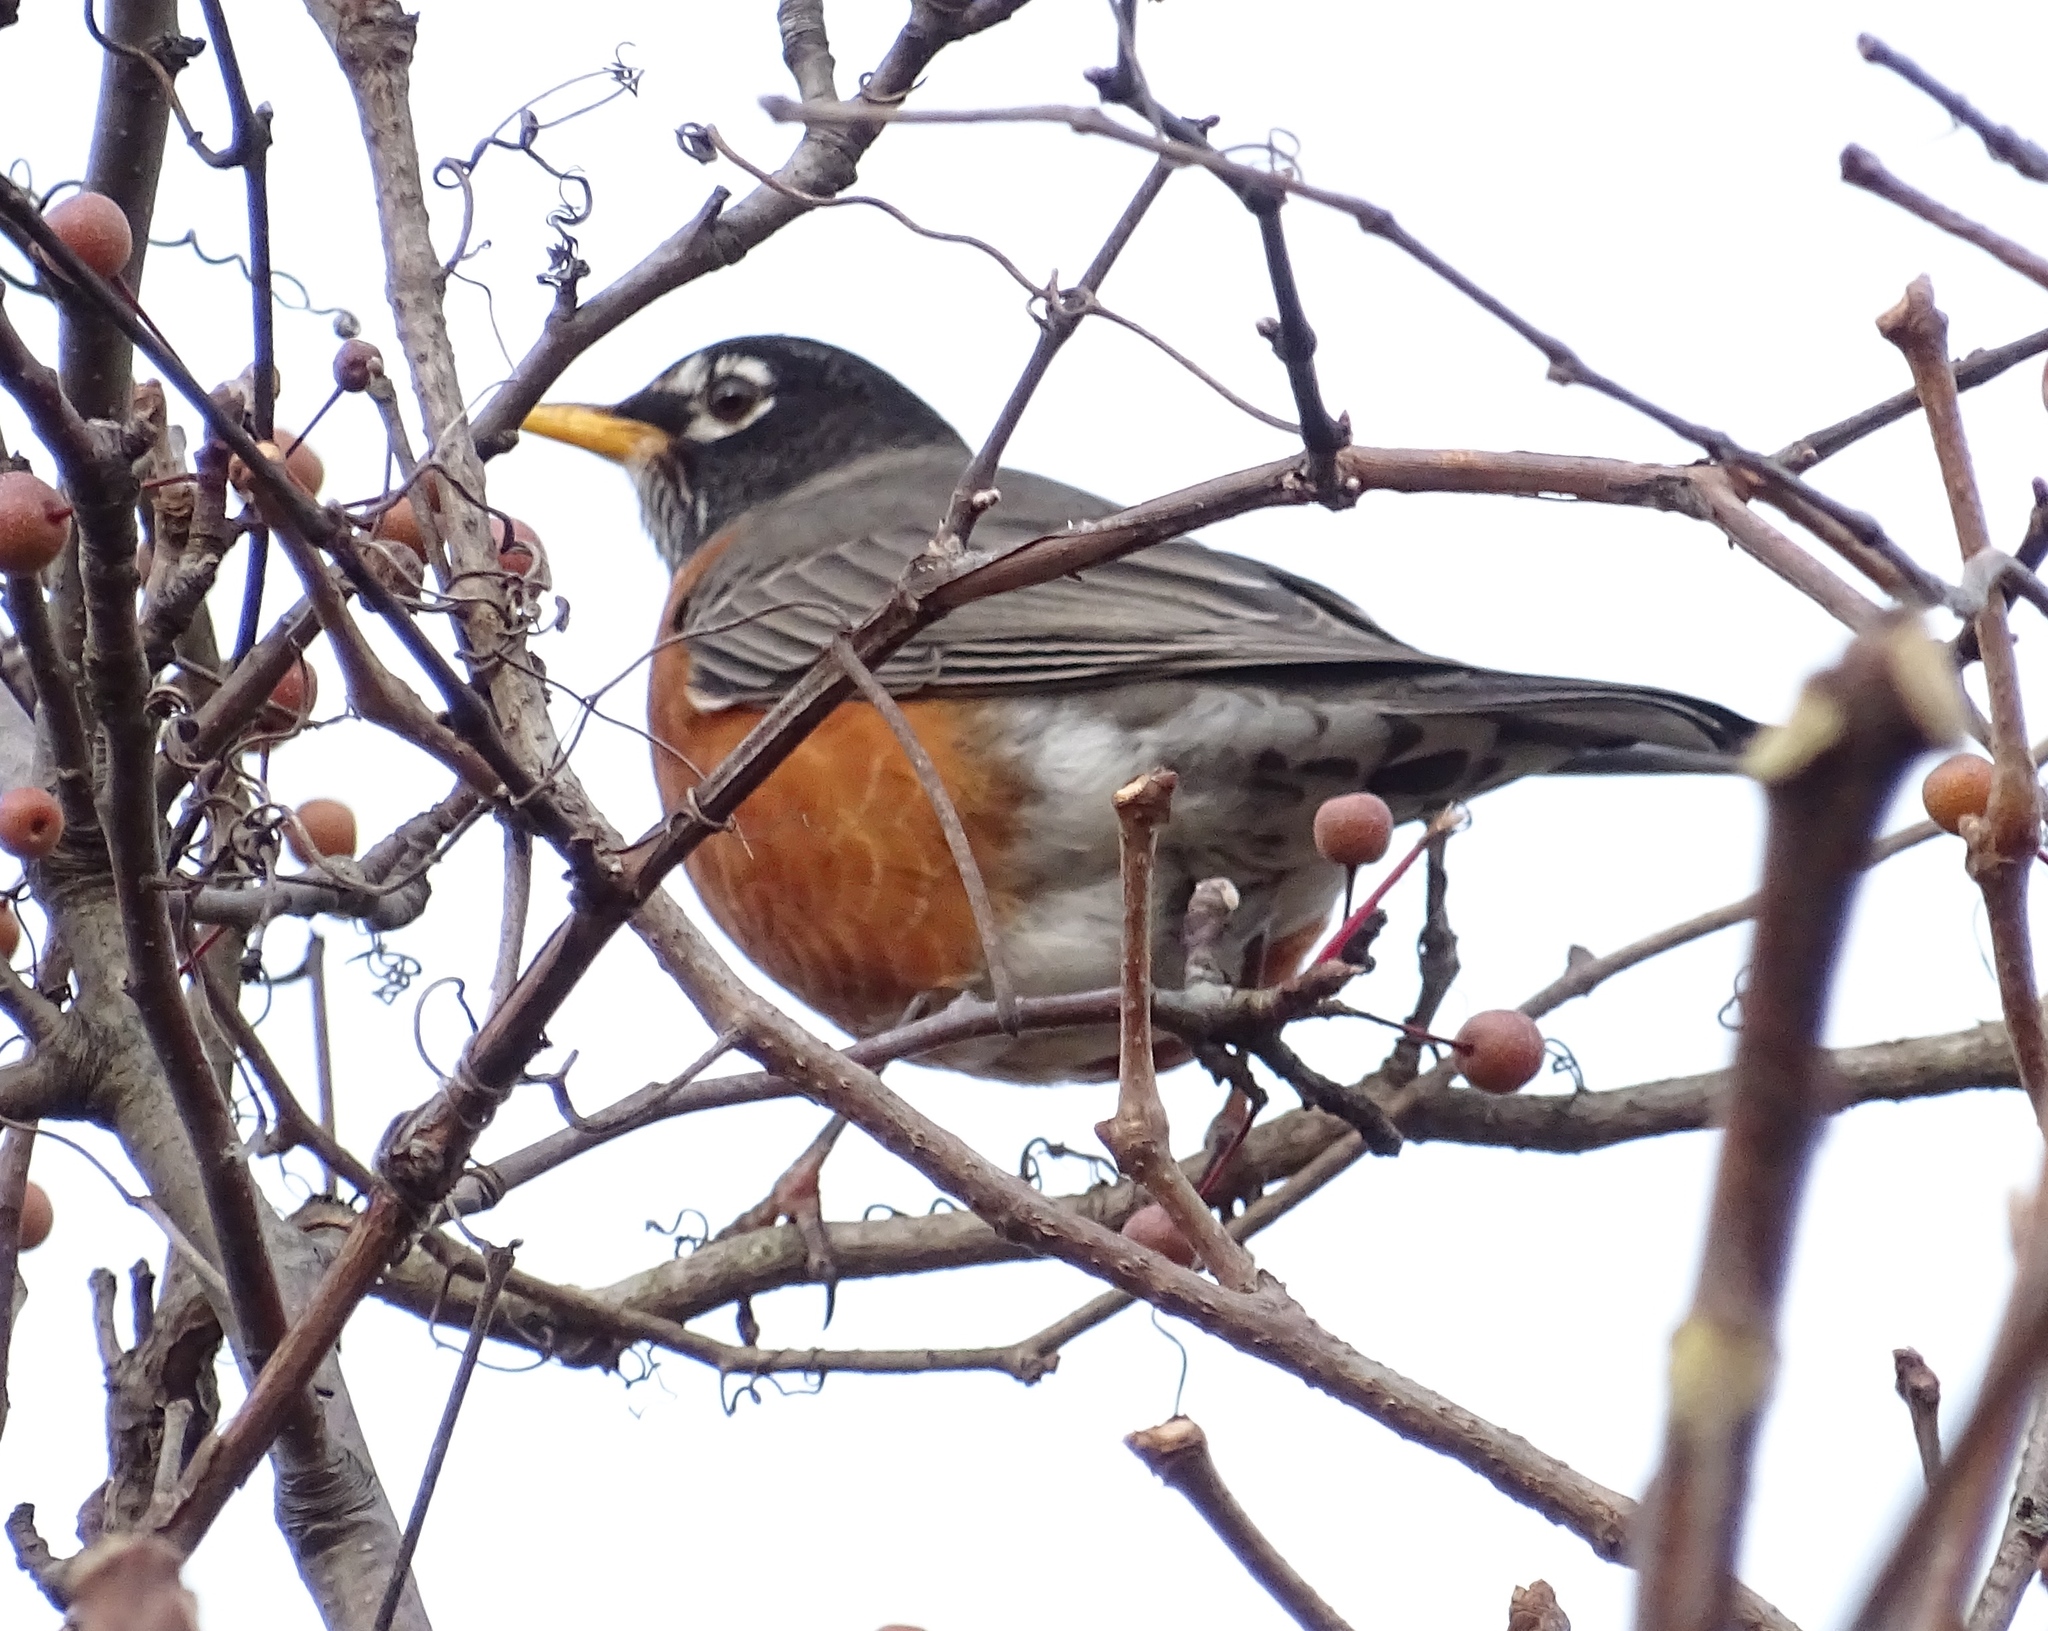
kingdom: Animalia
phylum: Chordata
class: Aves
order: Passeriformes
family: Turdidae
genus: Turdus
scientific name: Turdus migratorius
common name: American robin
